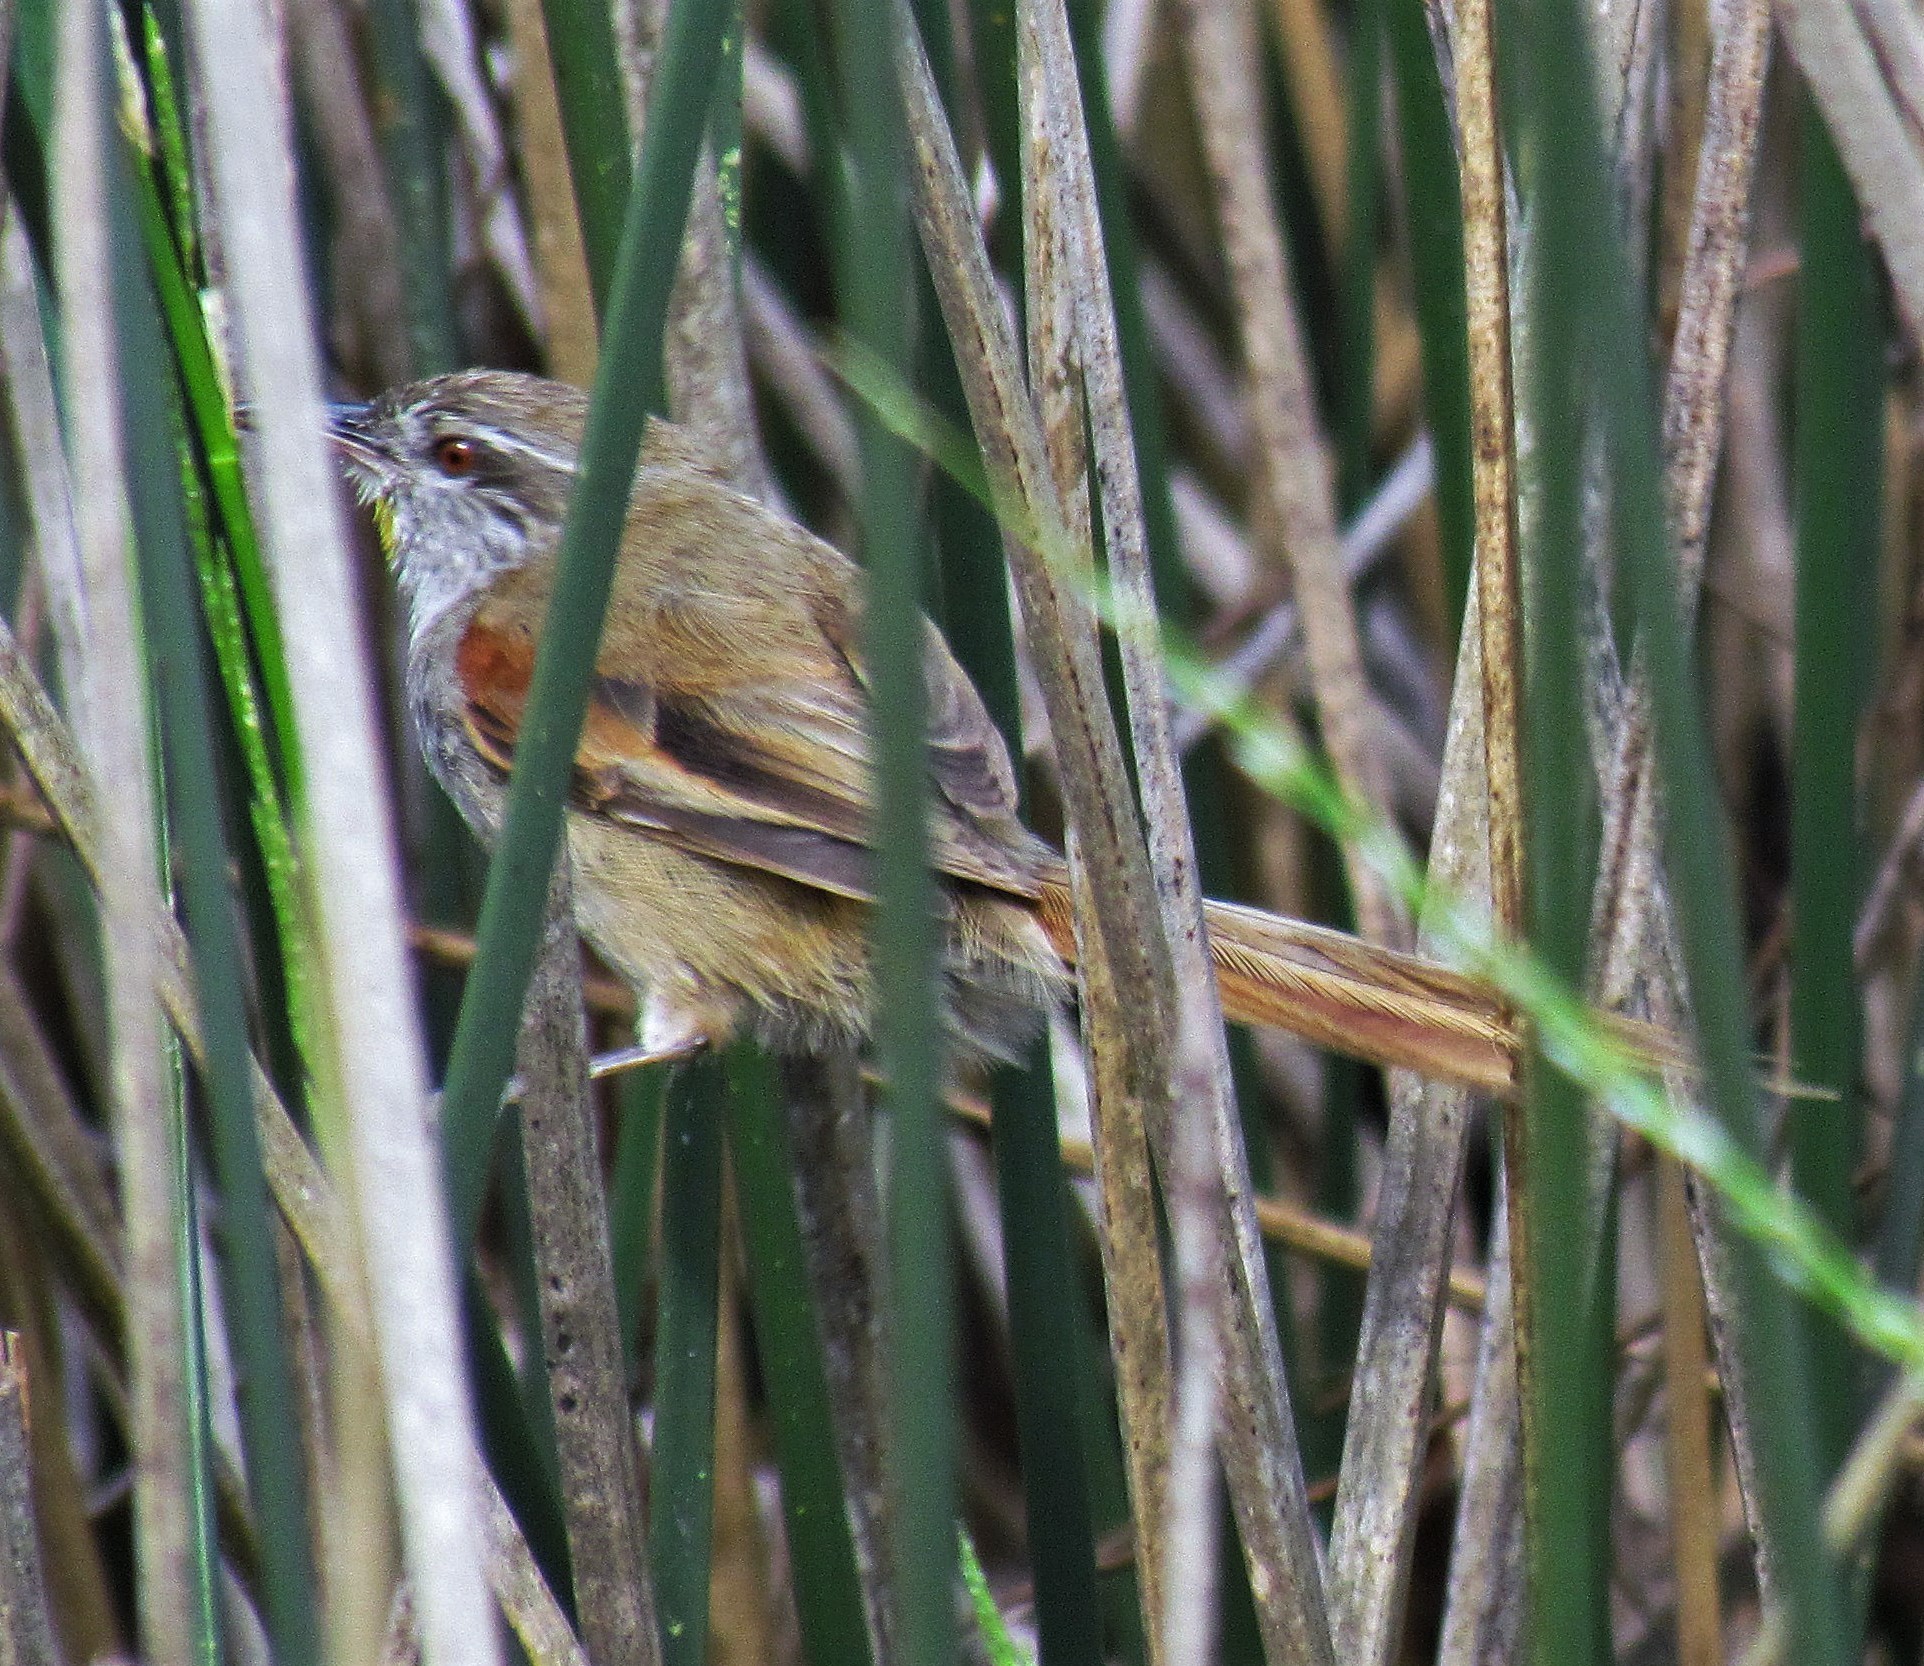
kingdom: Animalia
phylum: Chordata
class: Aves
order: Passeriformes
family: Furnariidae
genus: Cranioleuca
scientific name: Cranioleuca sulphurifera
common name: Sulphur-bearded spinetail
